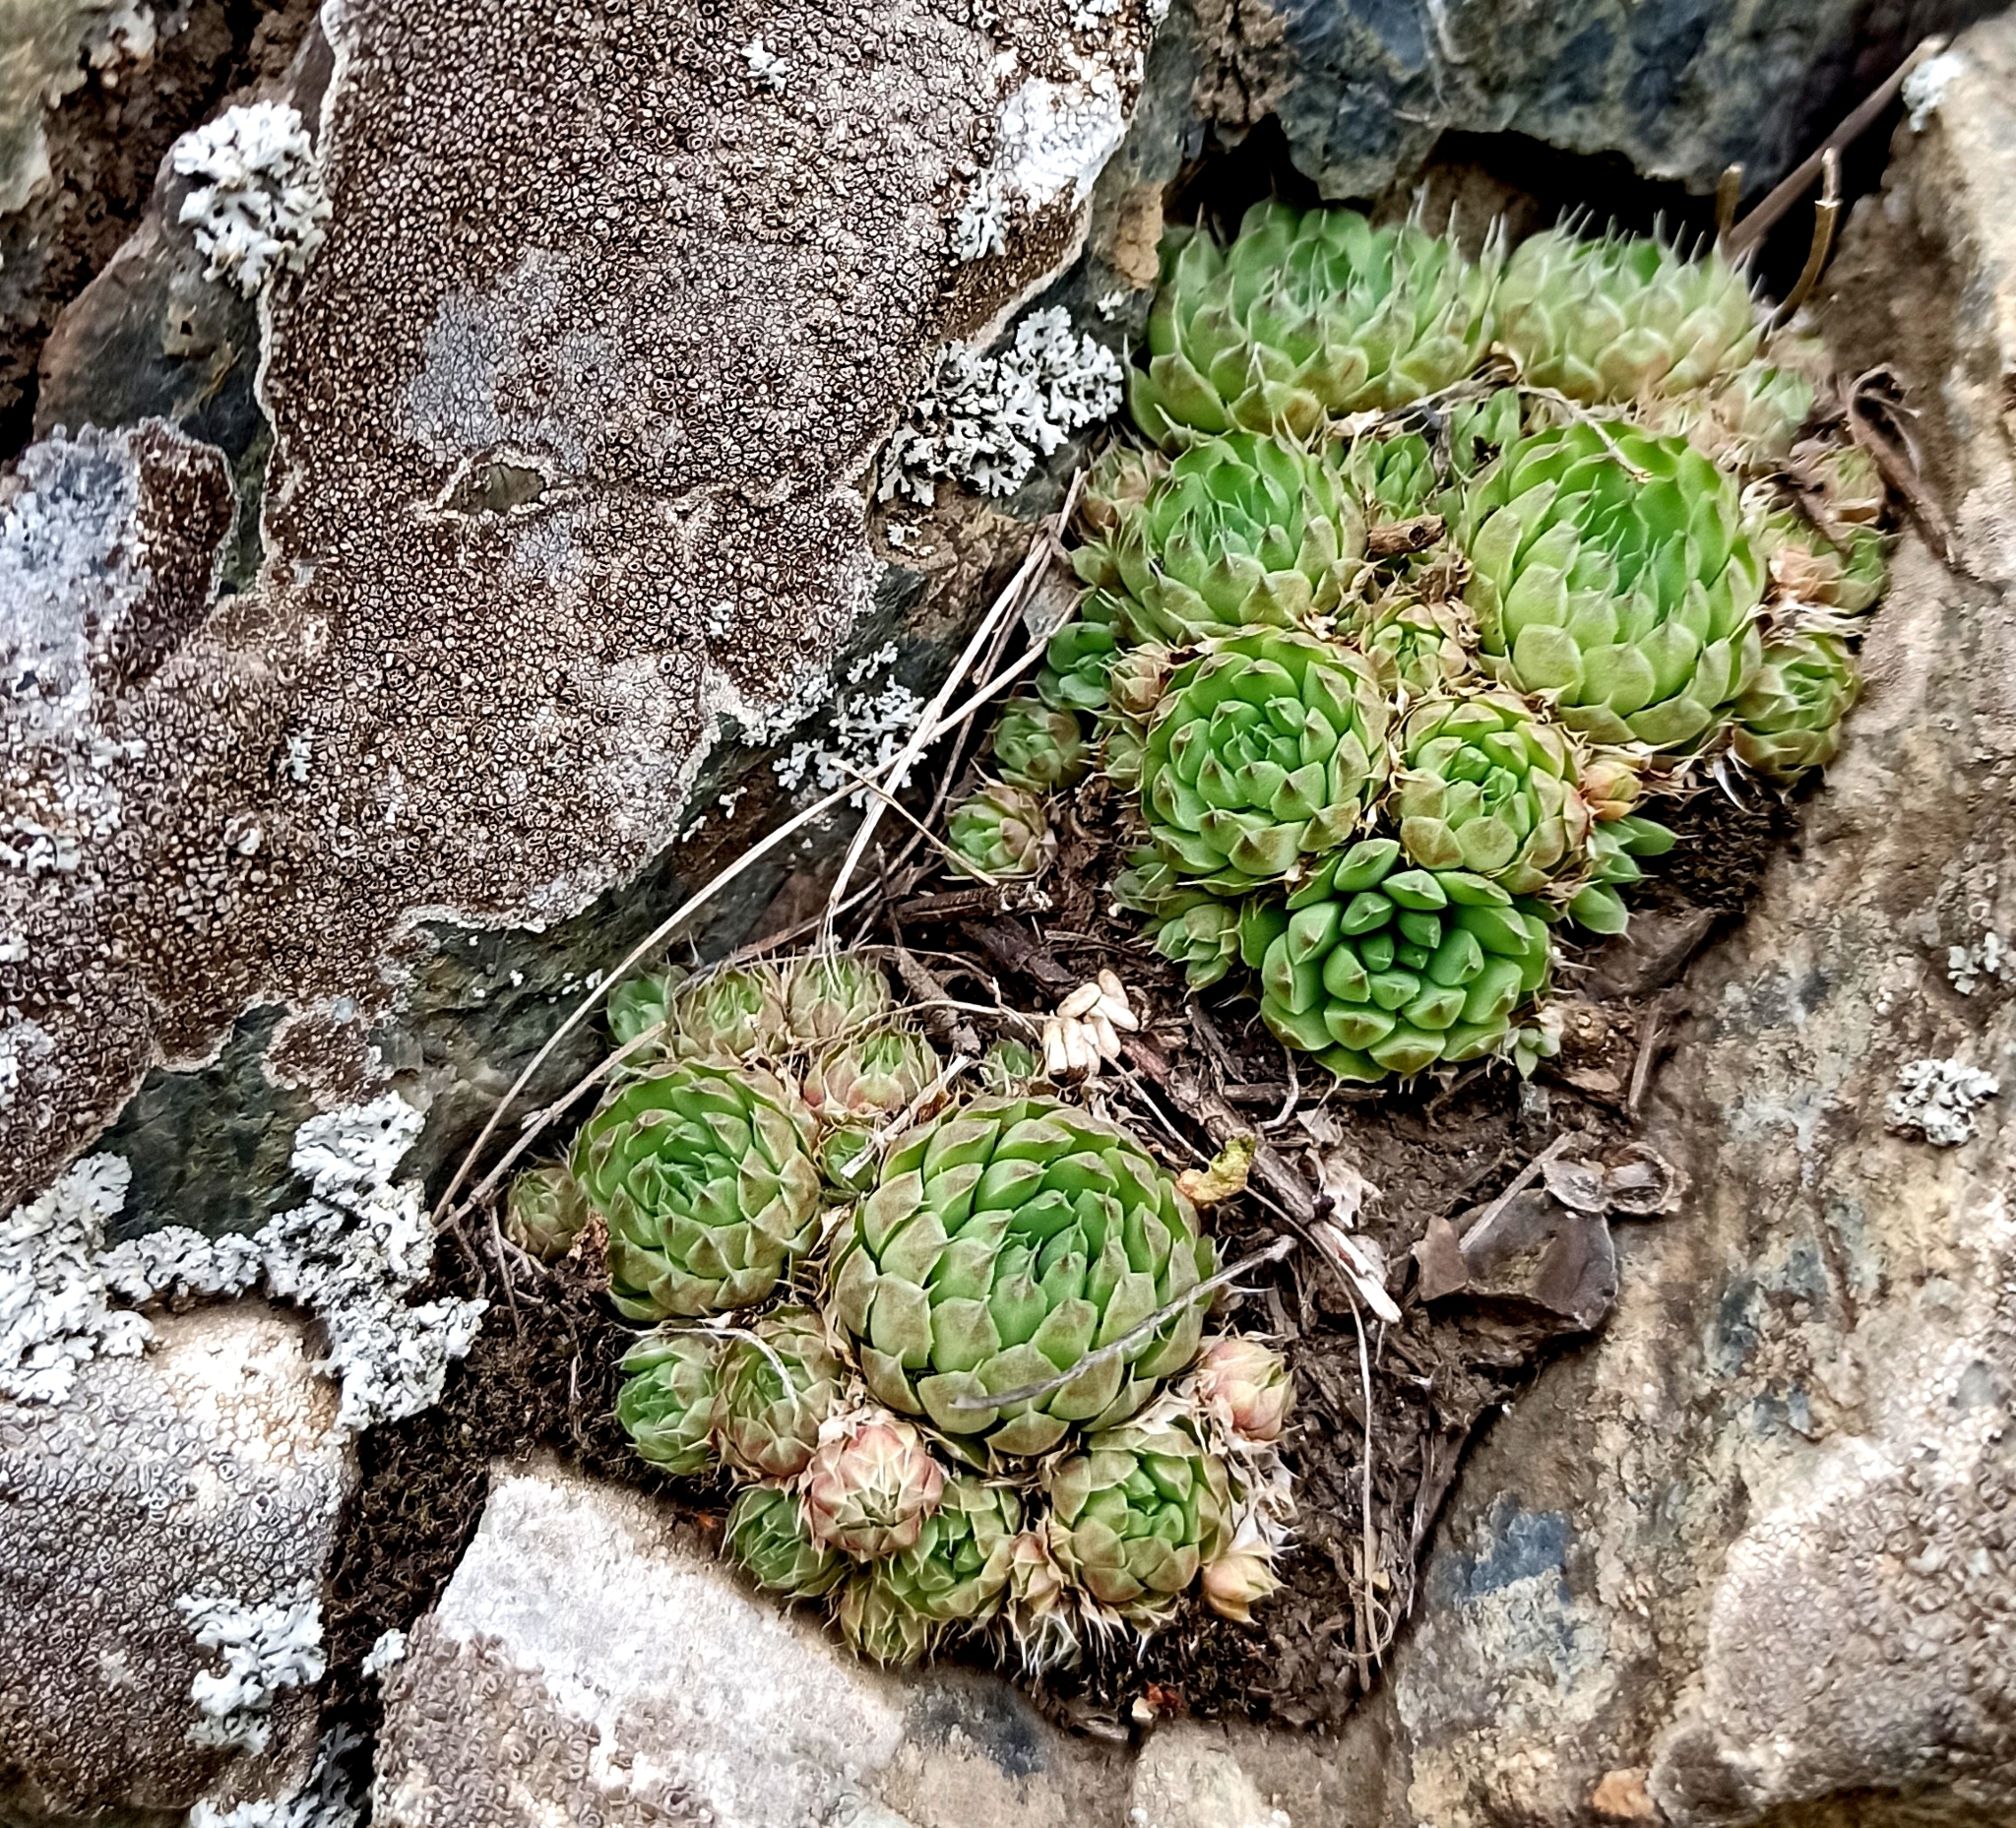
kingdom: Plantae
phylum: Tracheophyta
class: Magnoliopsida
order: Saxifragales
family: Crassulaceae
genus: Orostachys
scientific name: Orostachys spinosa
